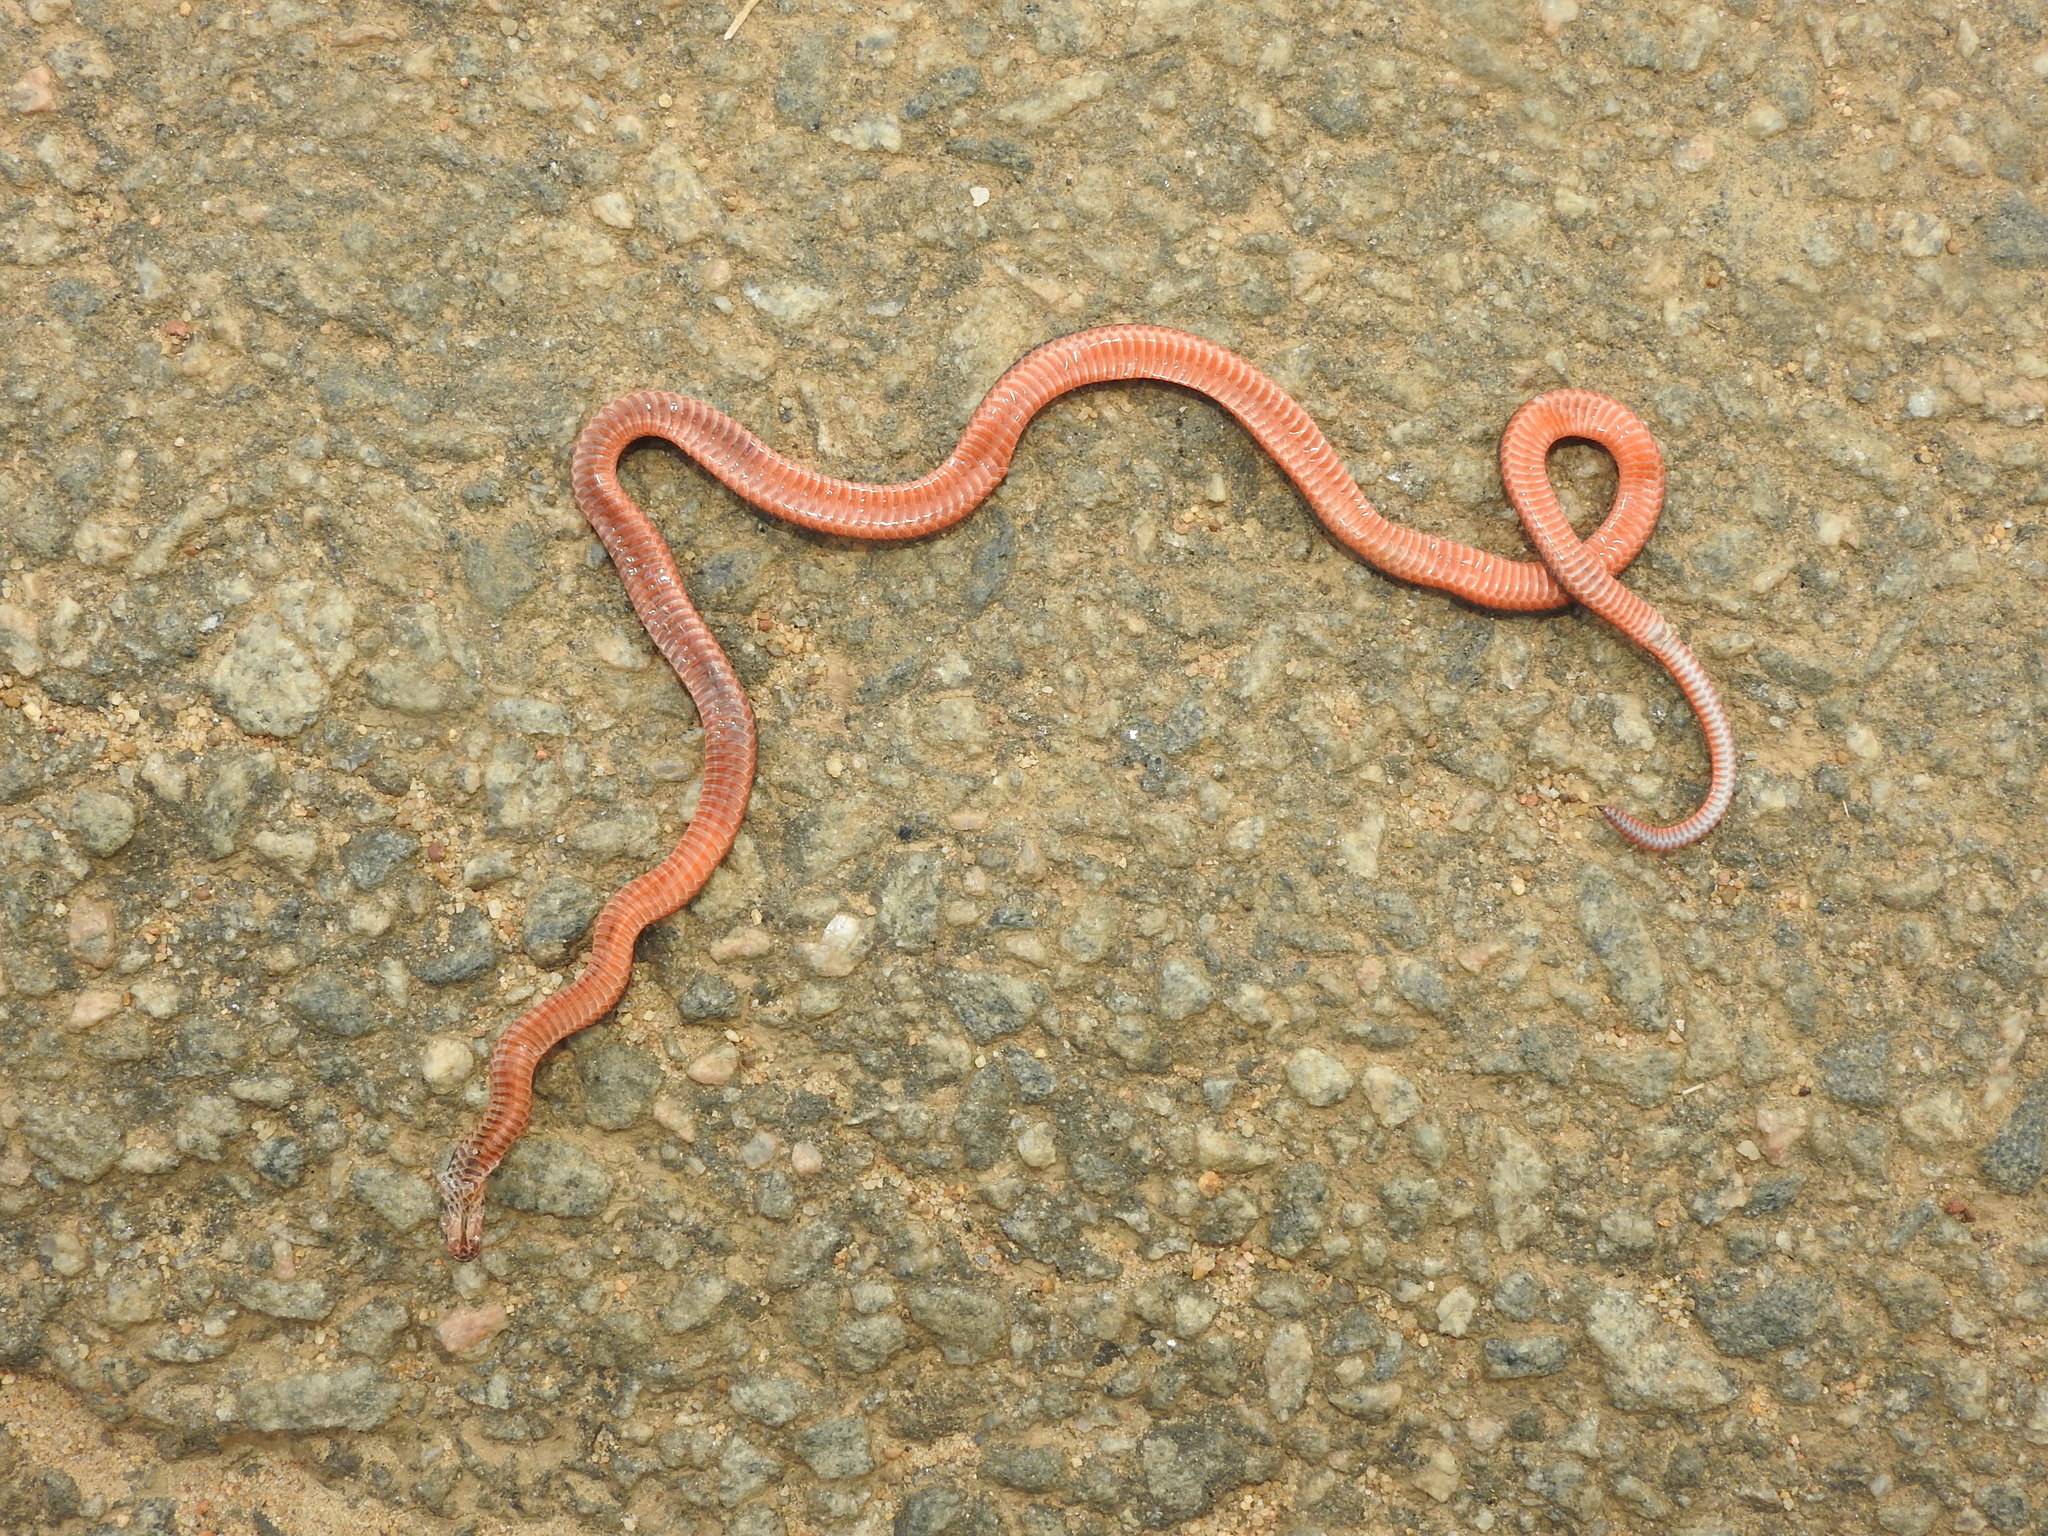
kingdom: Animalia
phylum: Chordata
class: Squamata
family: Elapidae
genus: Calliophis
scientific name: Calliophis nigrescens
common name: Black coral snake
